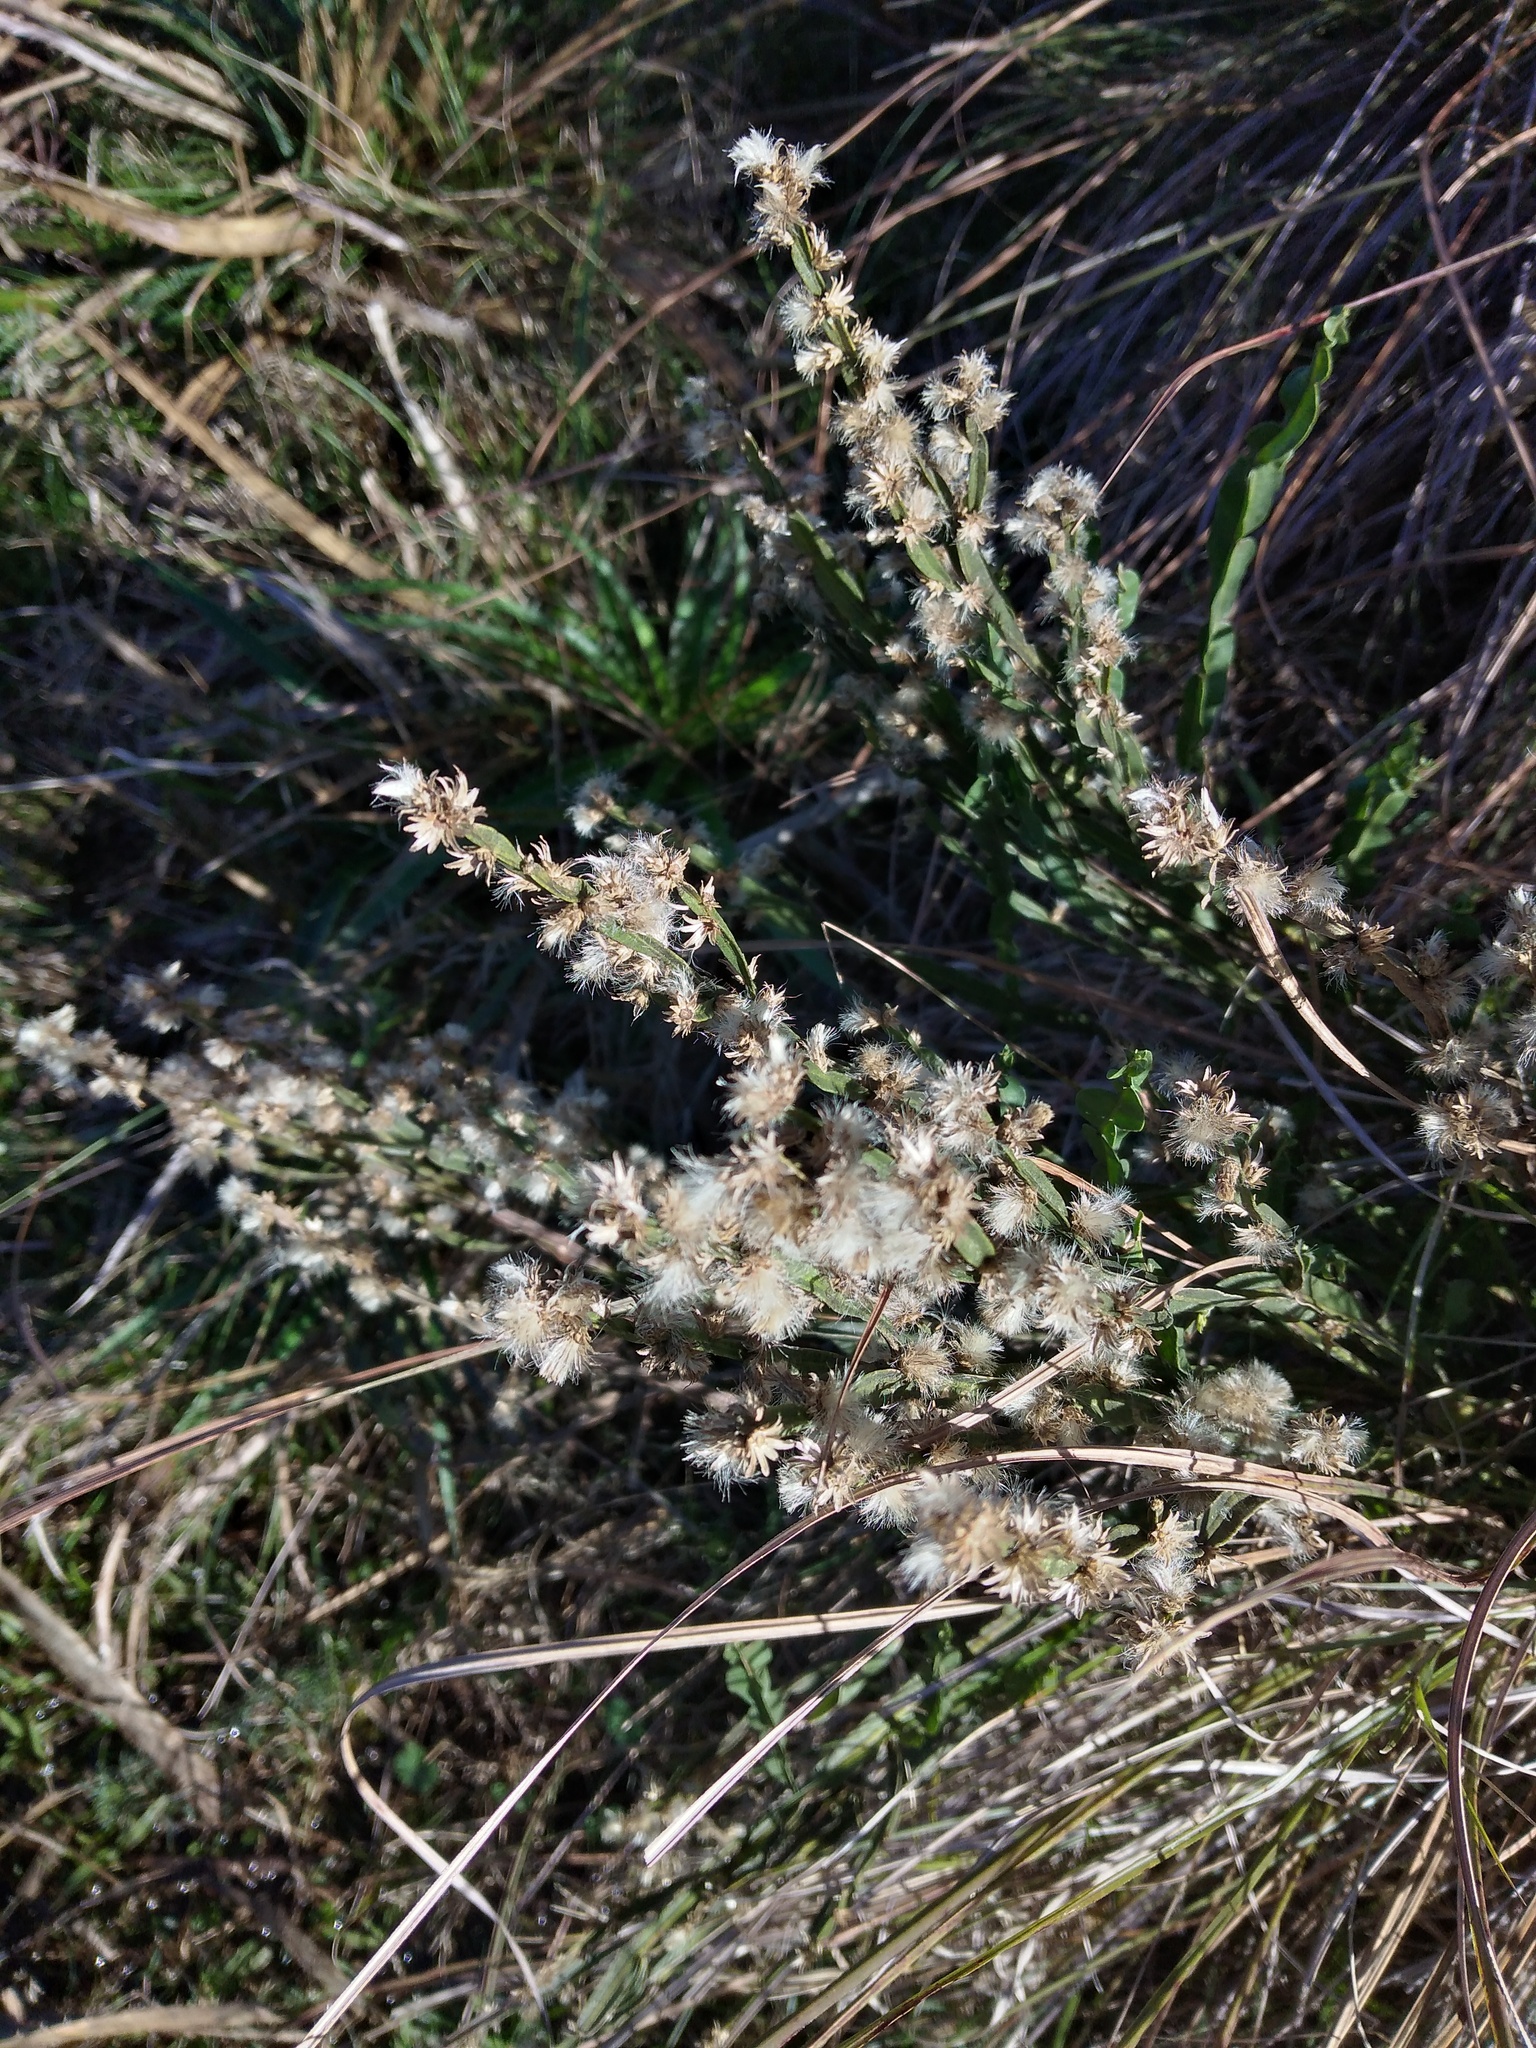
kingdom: Plantae
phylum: Tracheophyta
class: Magnoliopsida
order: Asterales
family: Asteraceae
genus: Baccharis
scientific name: Baccharis trimera
